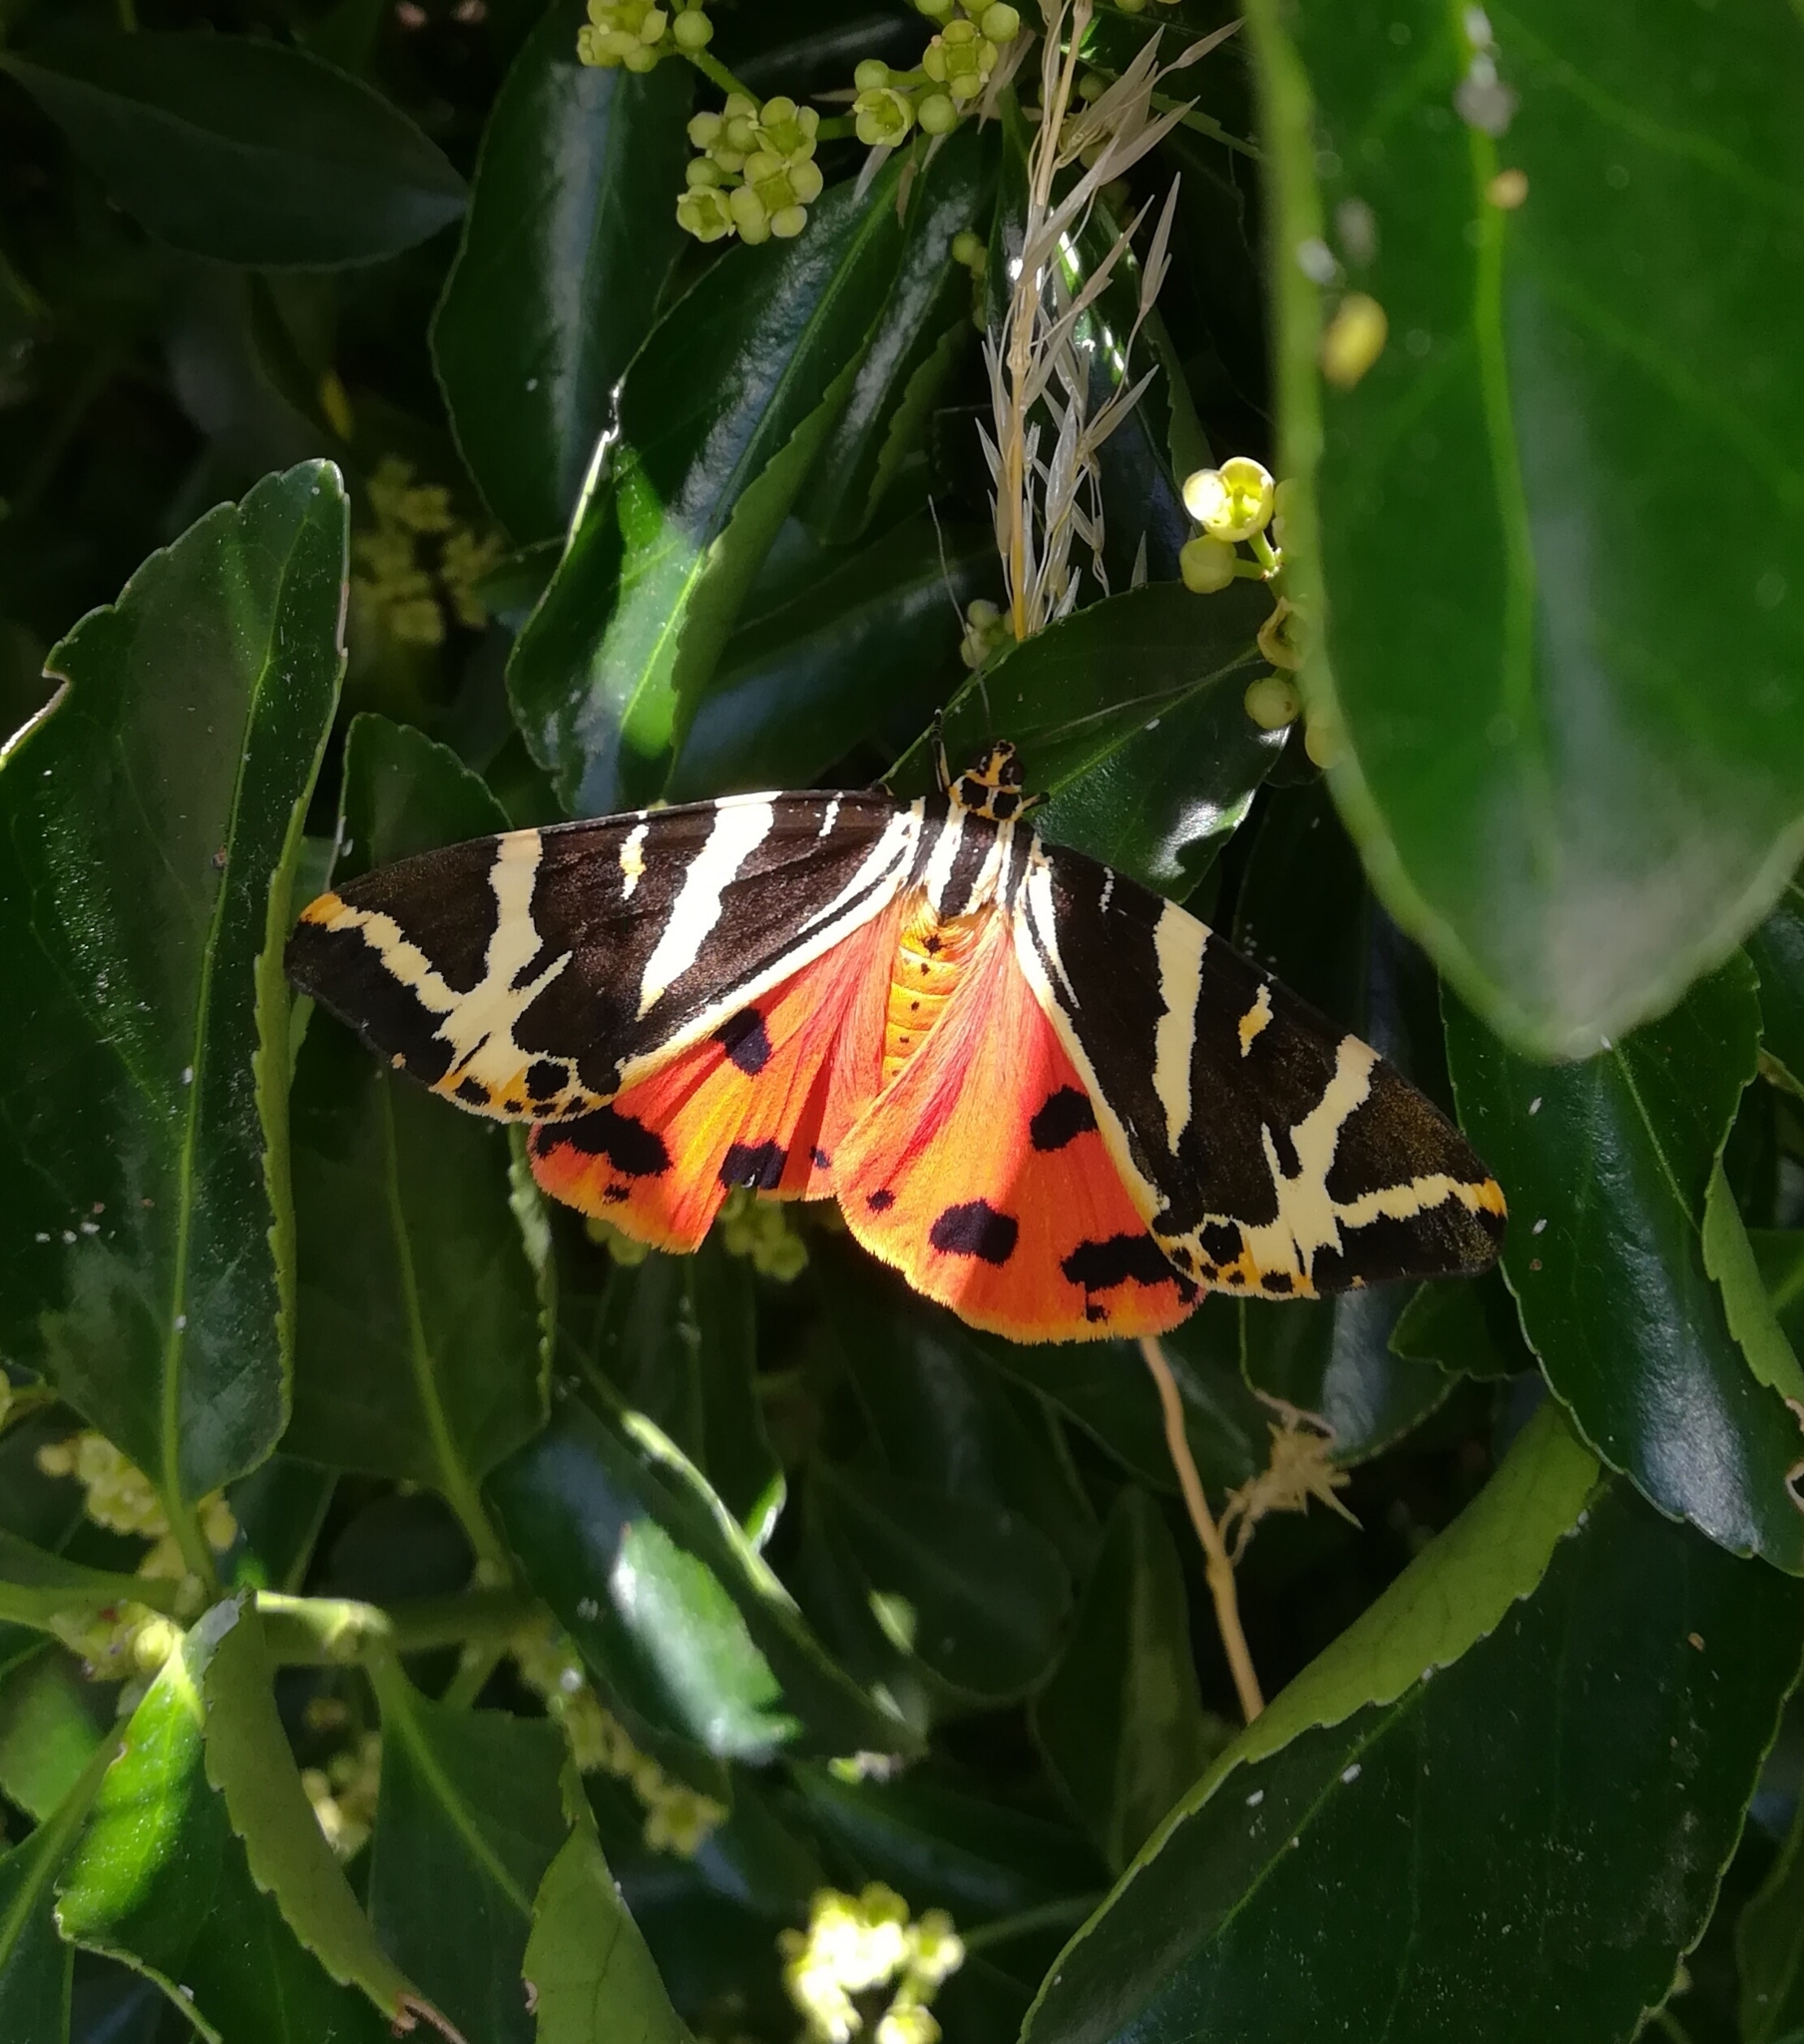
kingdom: Animalia
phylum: Arthropoda
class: Insecta
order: Lepidoptera
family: Erebidae
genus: Euplagia
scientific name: Euplagia quadripunctaria
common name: Jersey tiger
